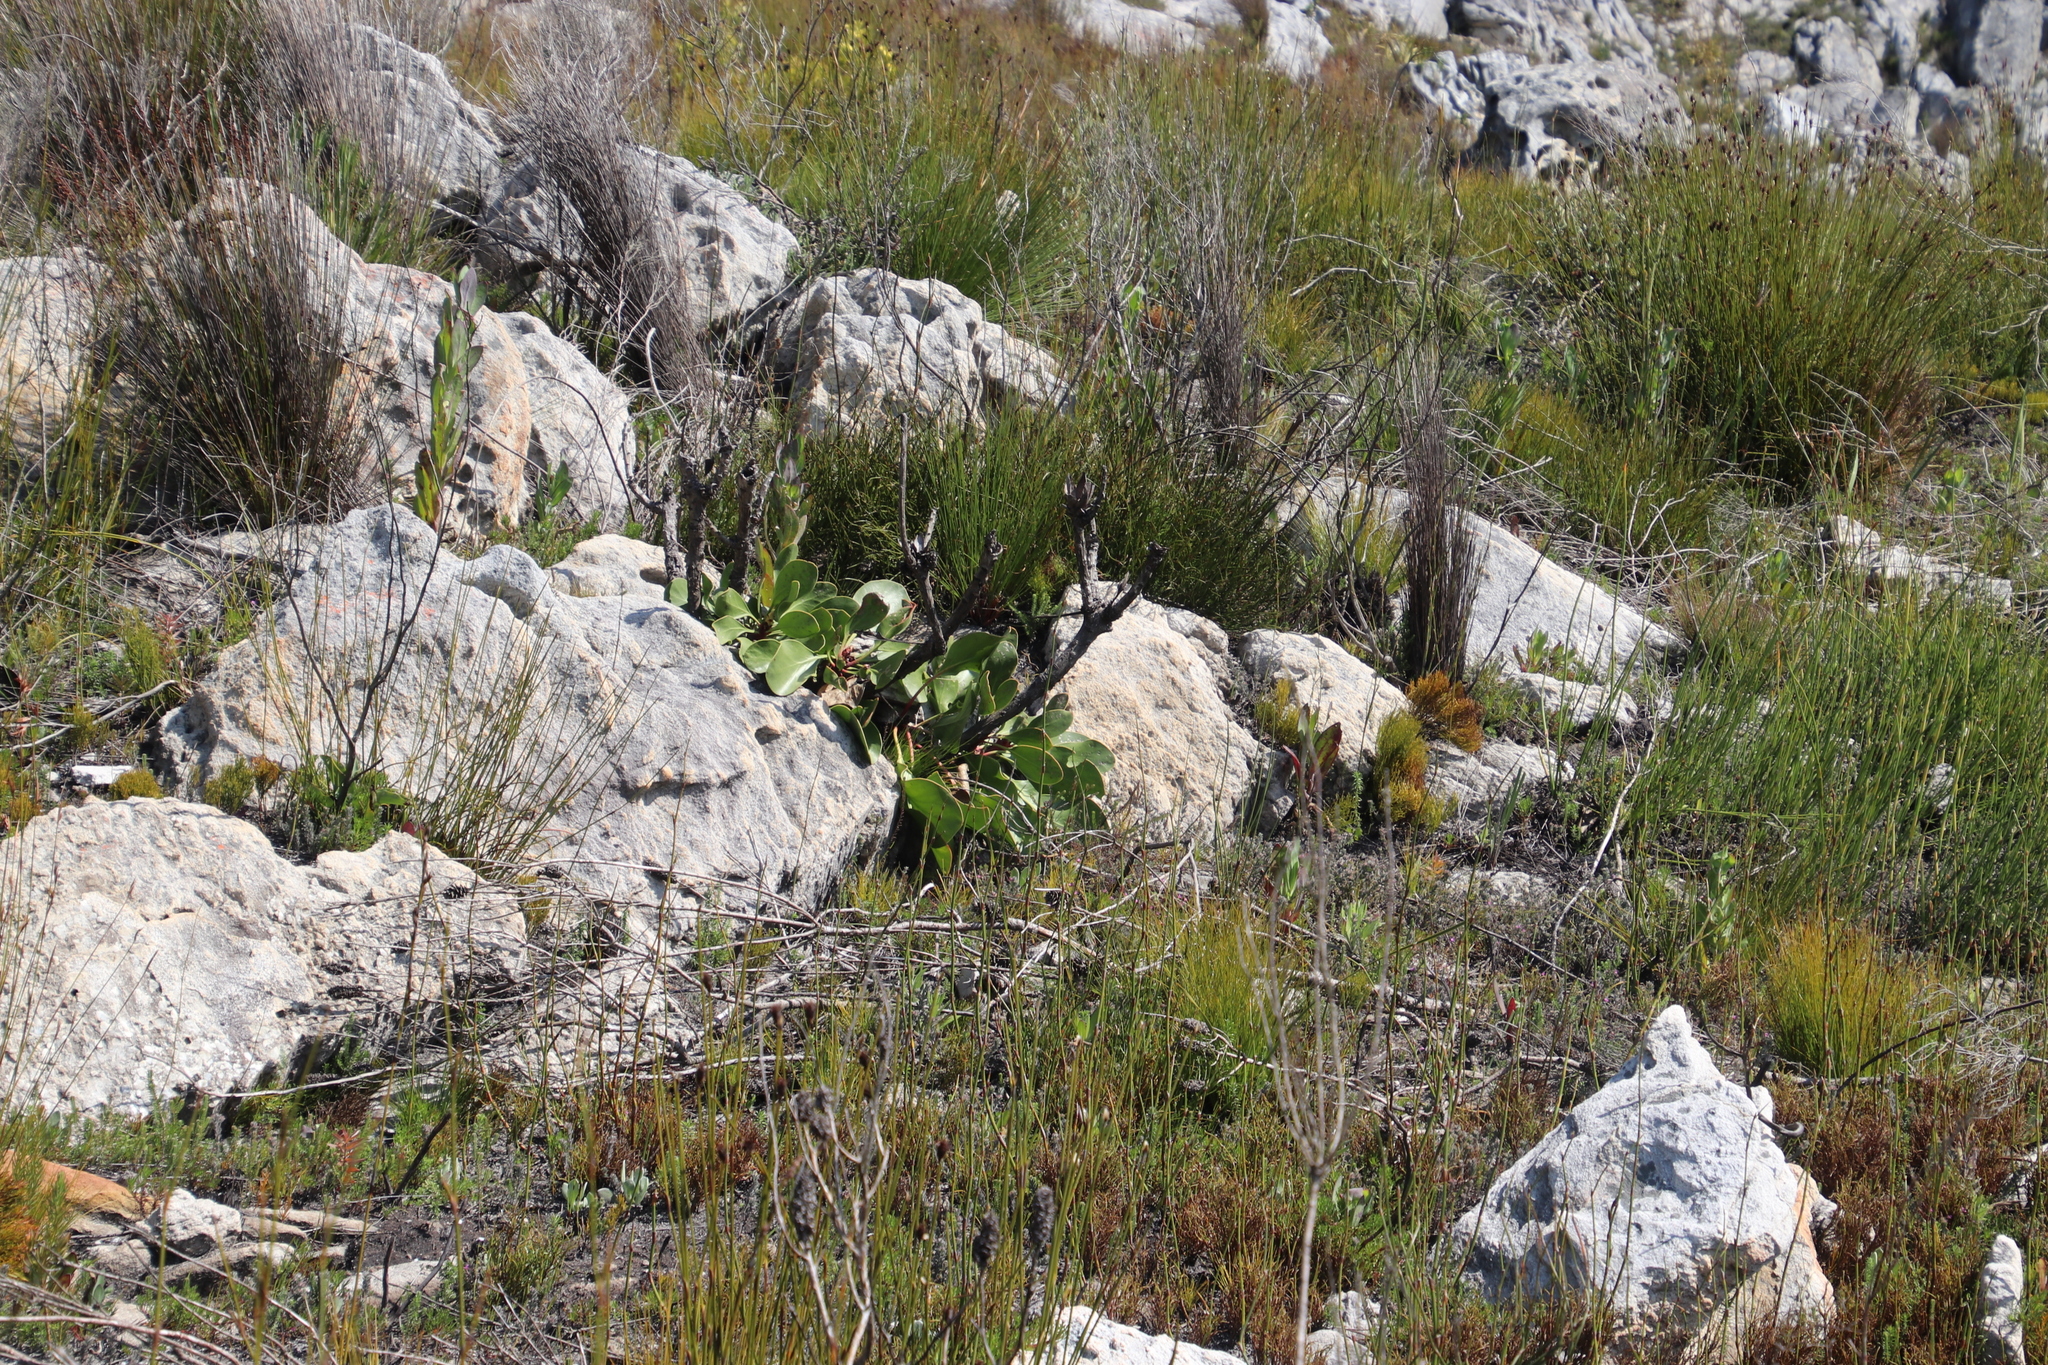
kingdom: Plantae
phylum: Tracheophyta
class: Magnoliopsida
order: Proteales
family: Proteaceae
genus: Protea
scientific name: Protea cynaroides
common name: King protea
